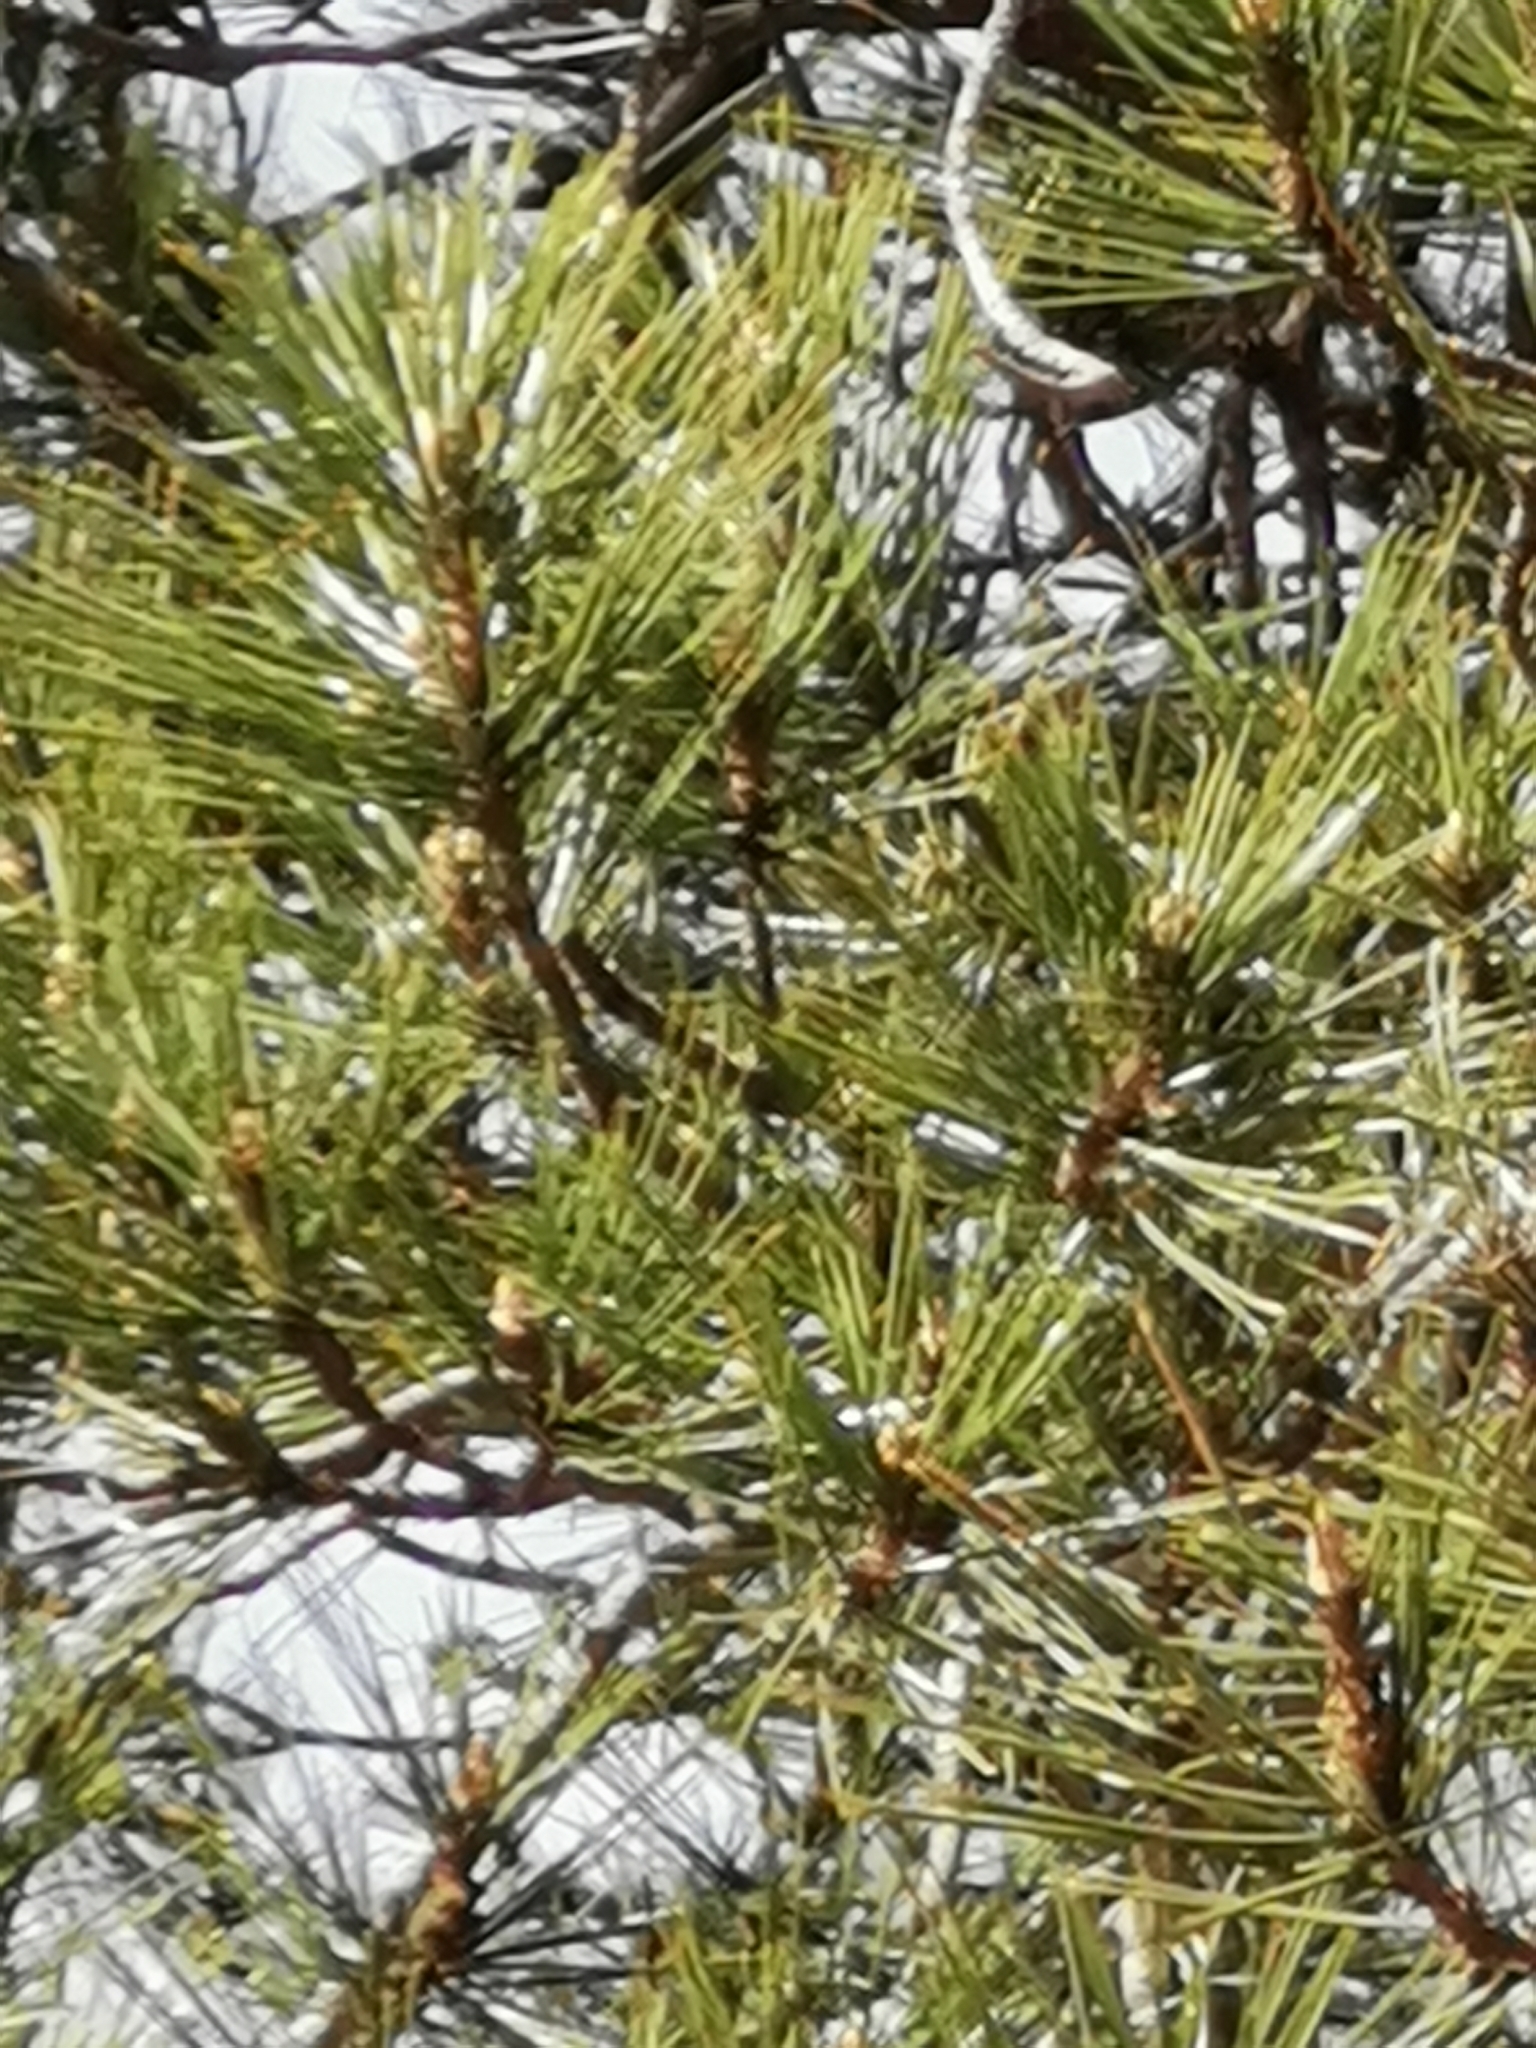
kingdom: Plantae
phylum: Tracheophyta
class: Pinopsida
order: Pinales
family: Pinaceae
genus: Pinus
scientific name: Pinus teocote
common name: Aztec pine
